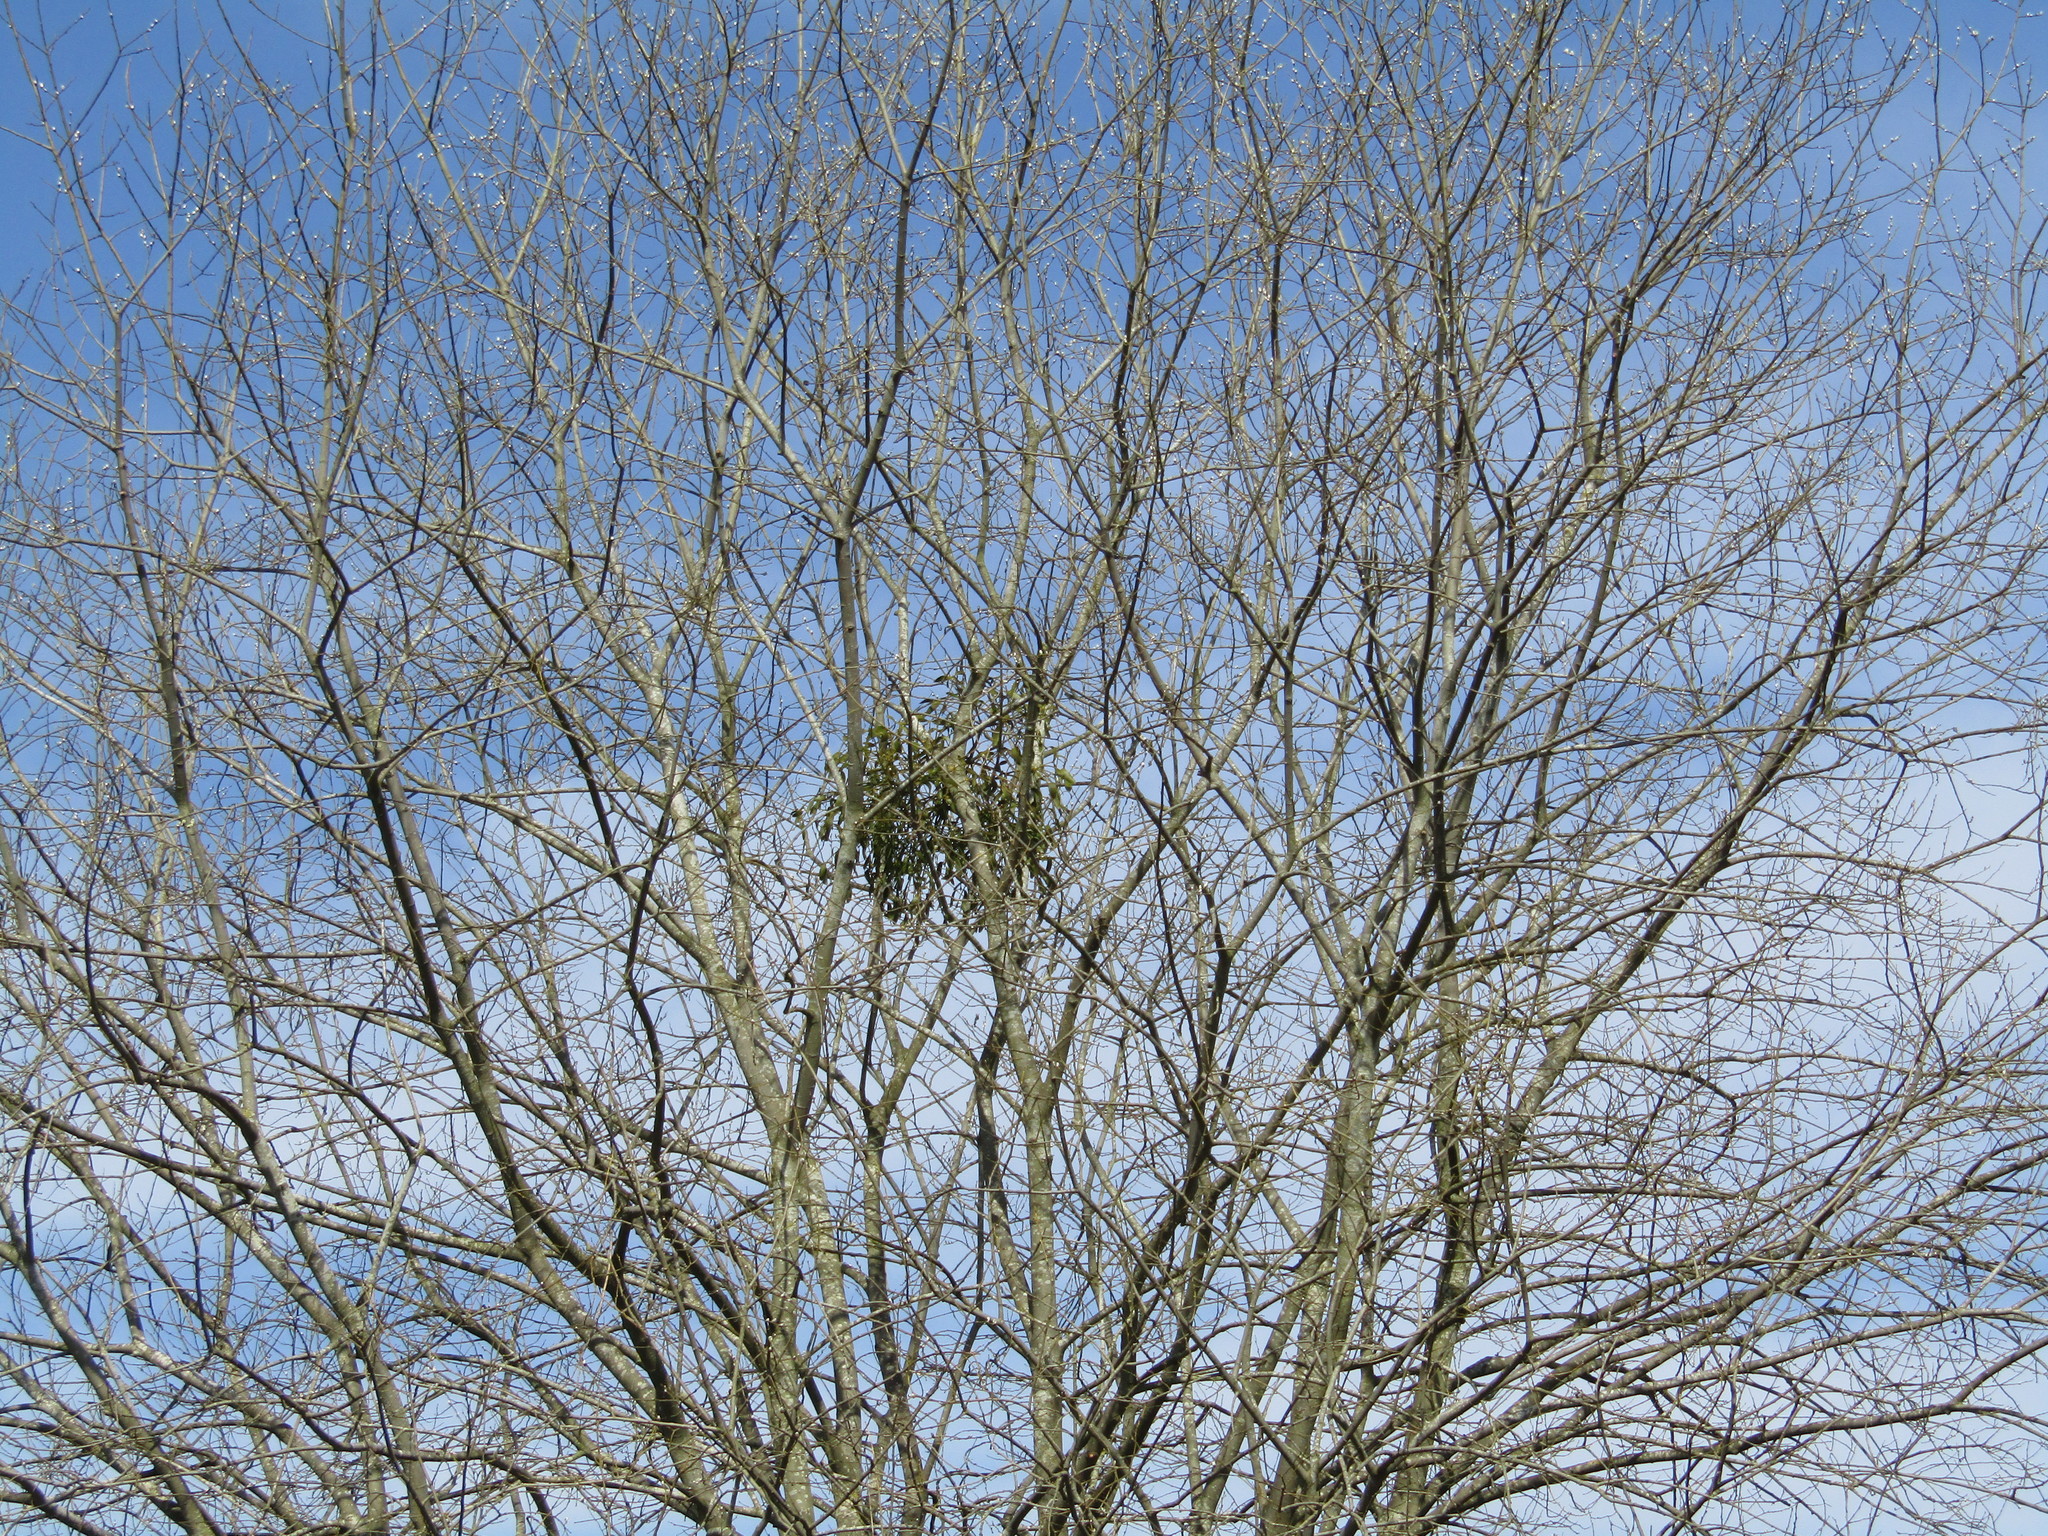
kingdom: Plantae
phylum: Tracheophyta
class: Magnoliopsida
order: Santalales
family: Viscaceae
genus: Viscum
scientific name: Viscum album
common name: Mistletoe
